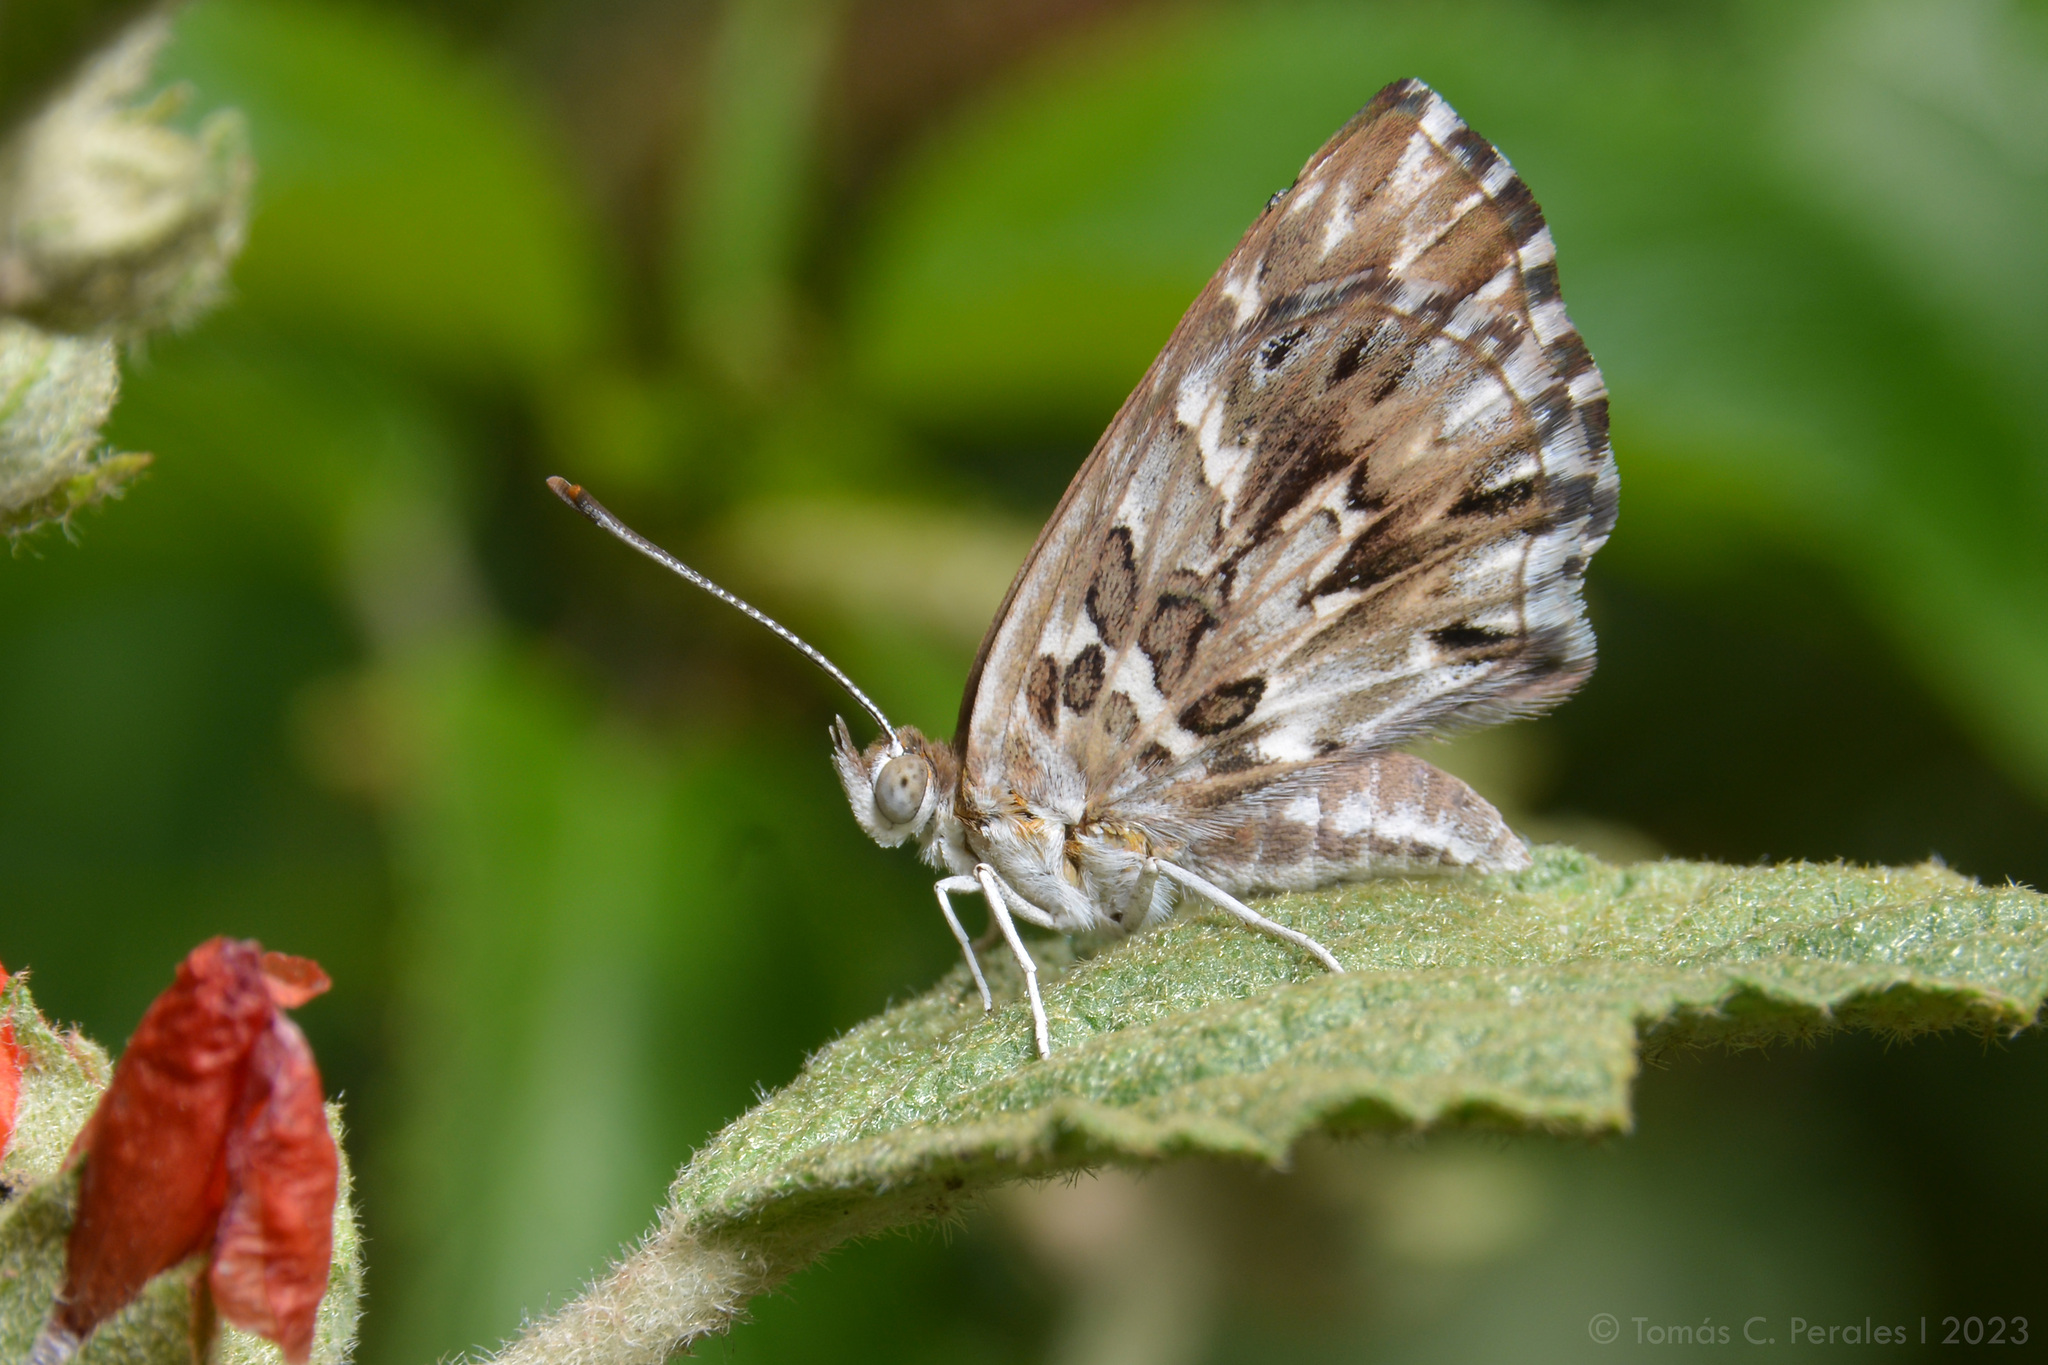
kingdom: Animalia
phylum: Arthropoda
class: Insecta
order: Lepidoptera
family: Lycaenidae
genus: Aricoris
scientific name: Aricoris notialis
